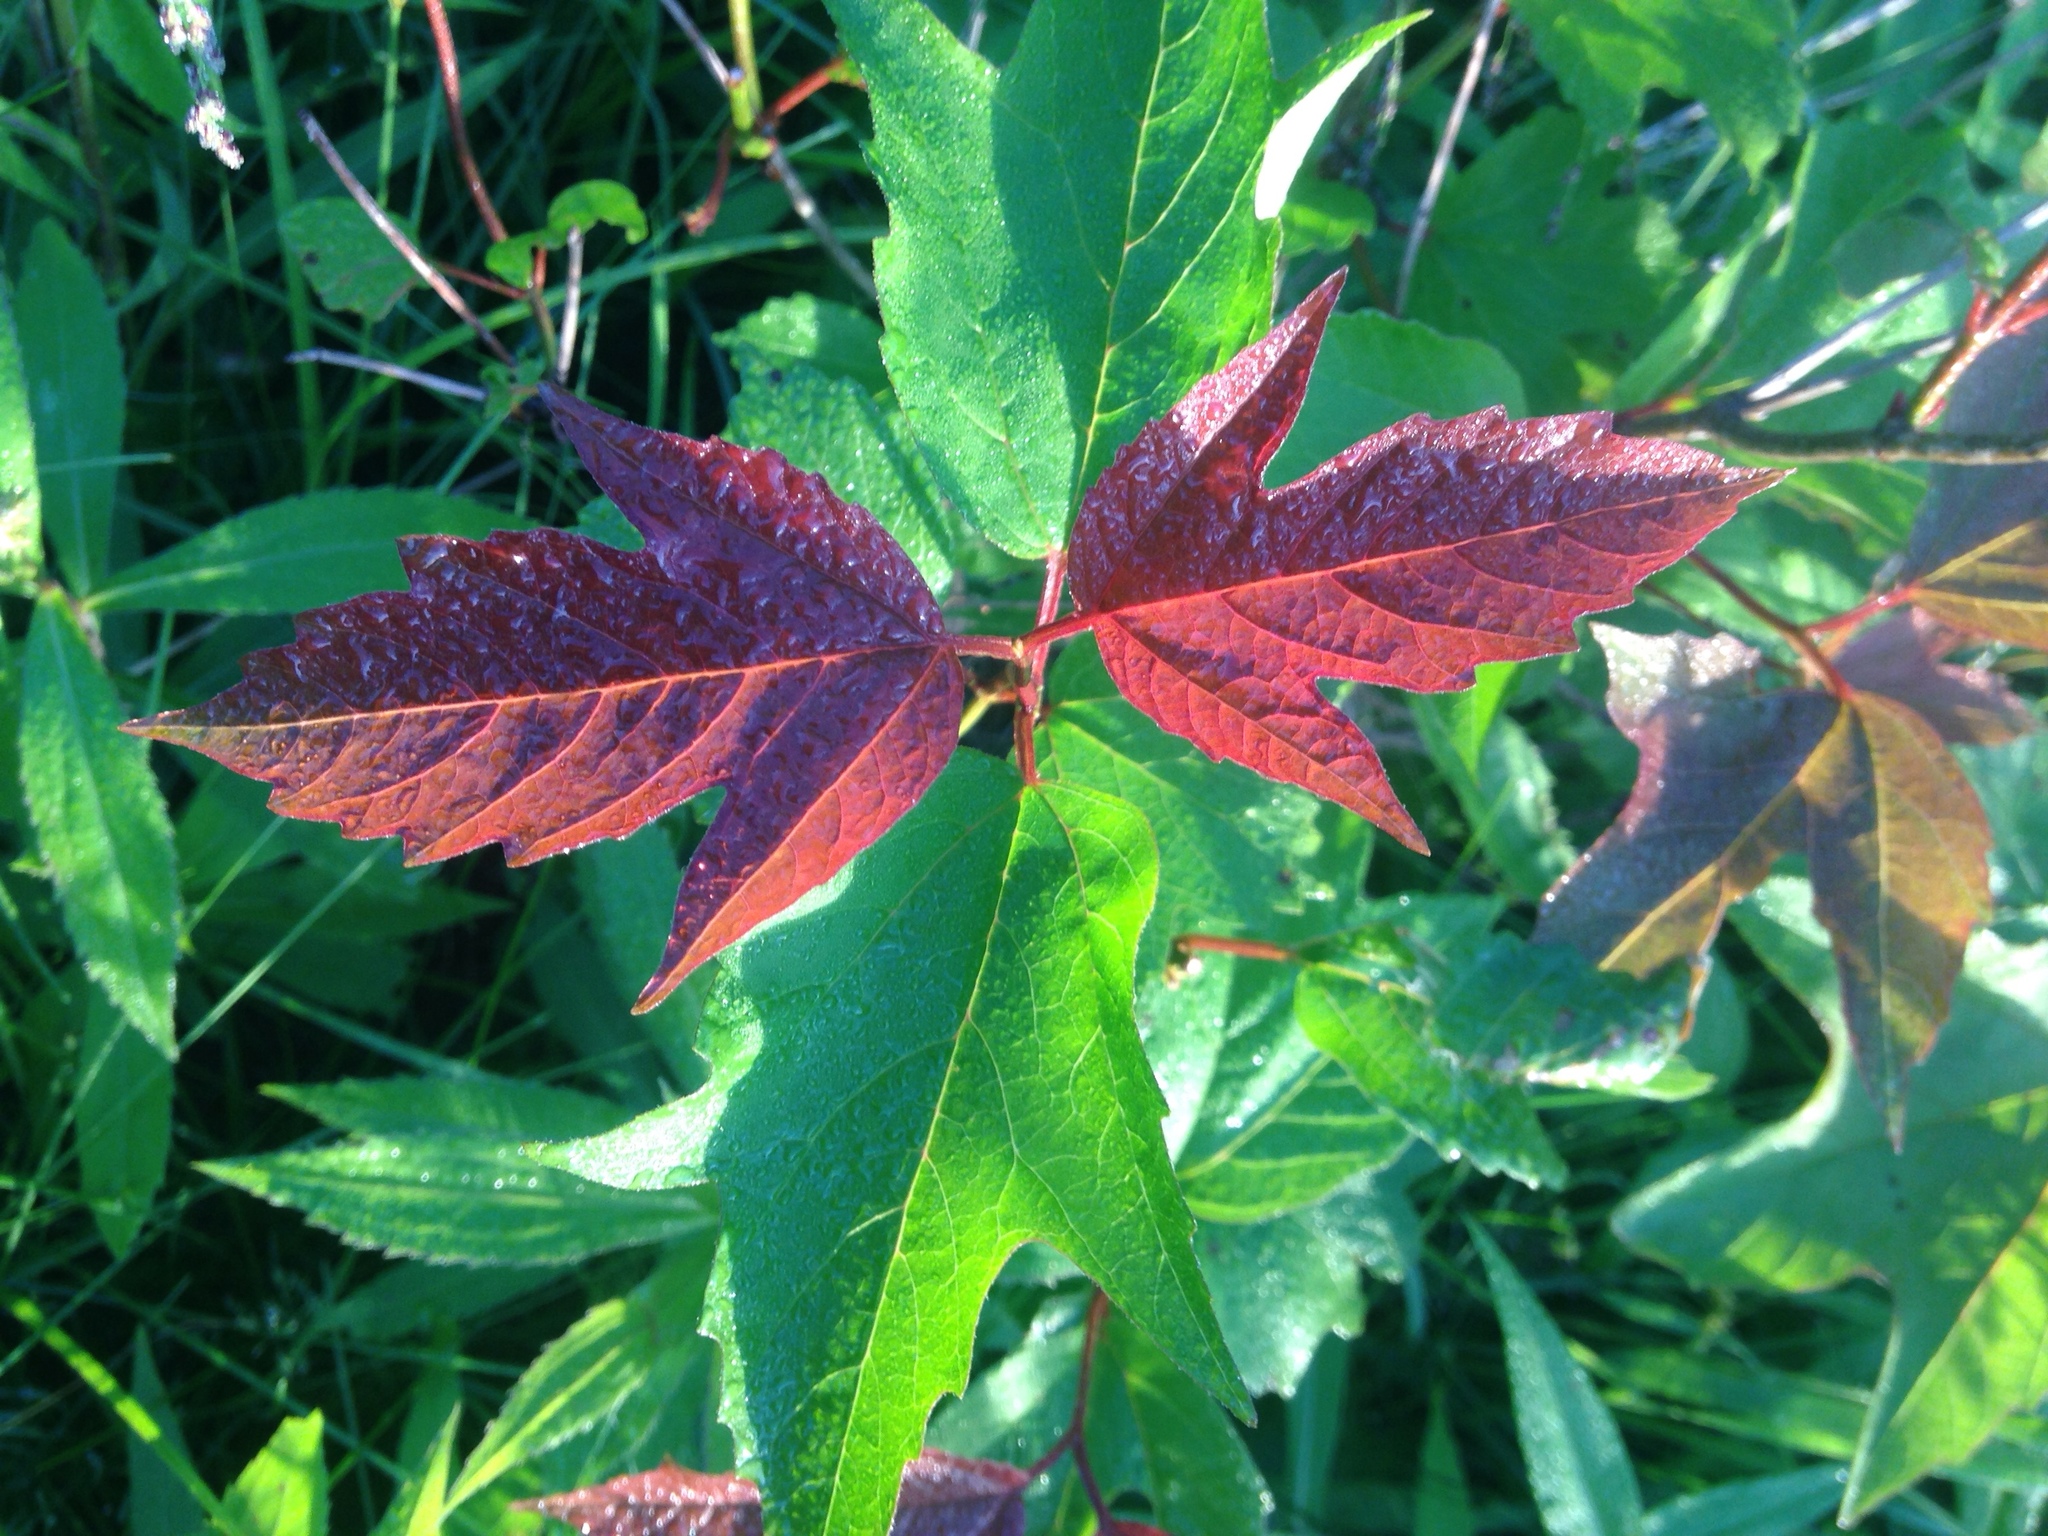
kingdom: Plantae
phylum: Tracheophyta
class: Magnoliopsida
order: Dipsacales
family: Viburnaceae
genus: Viburnum
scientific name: Viburnum trilobum
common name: American cranberrybush
